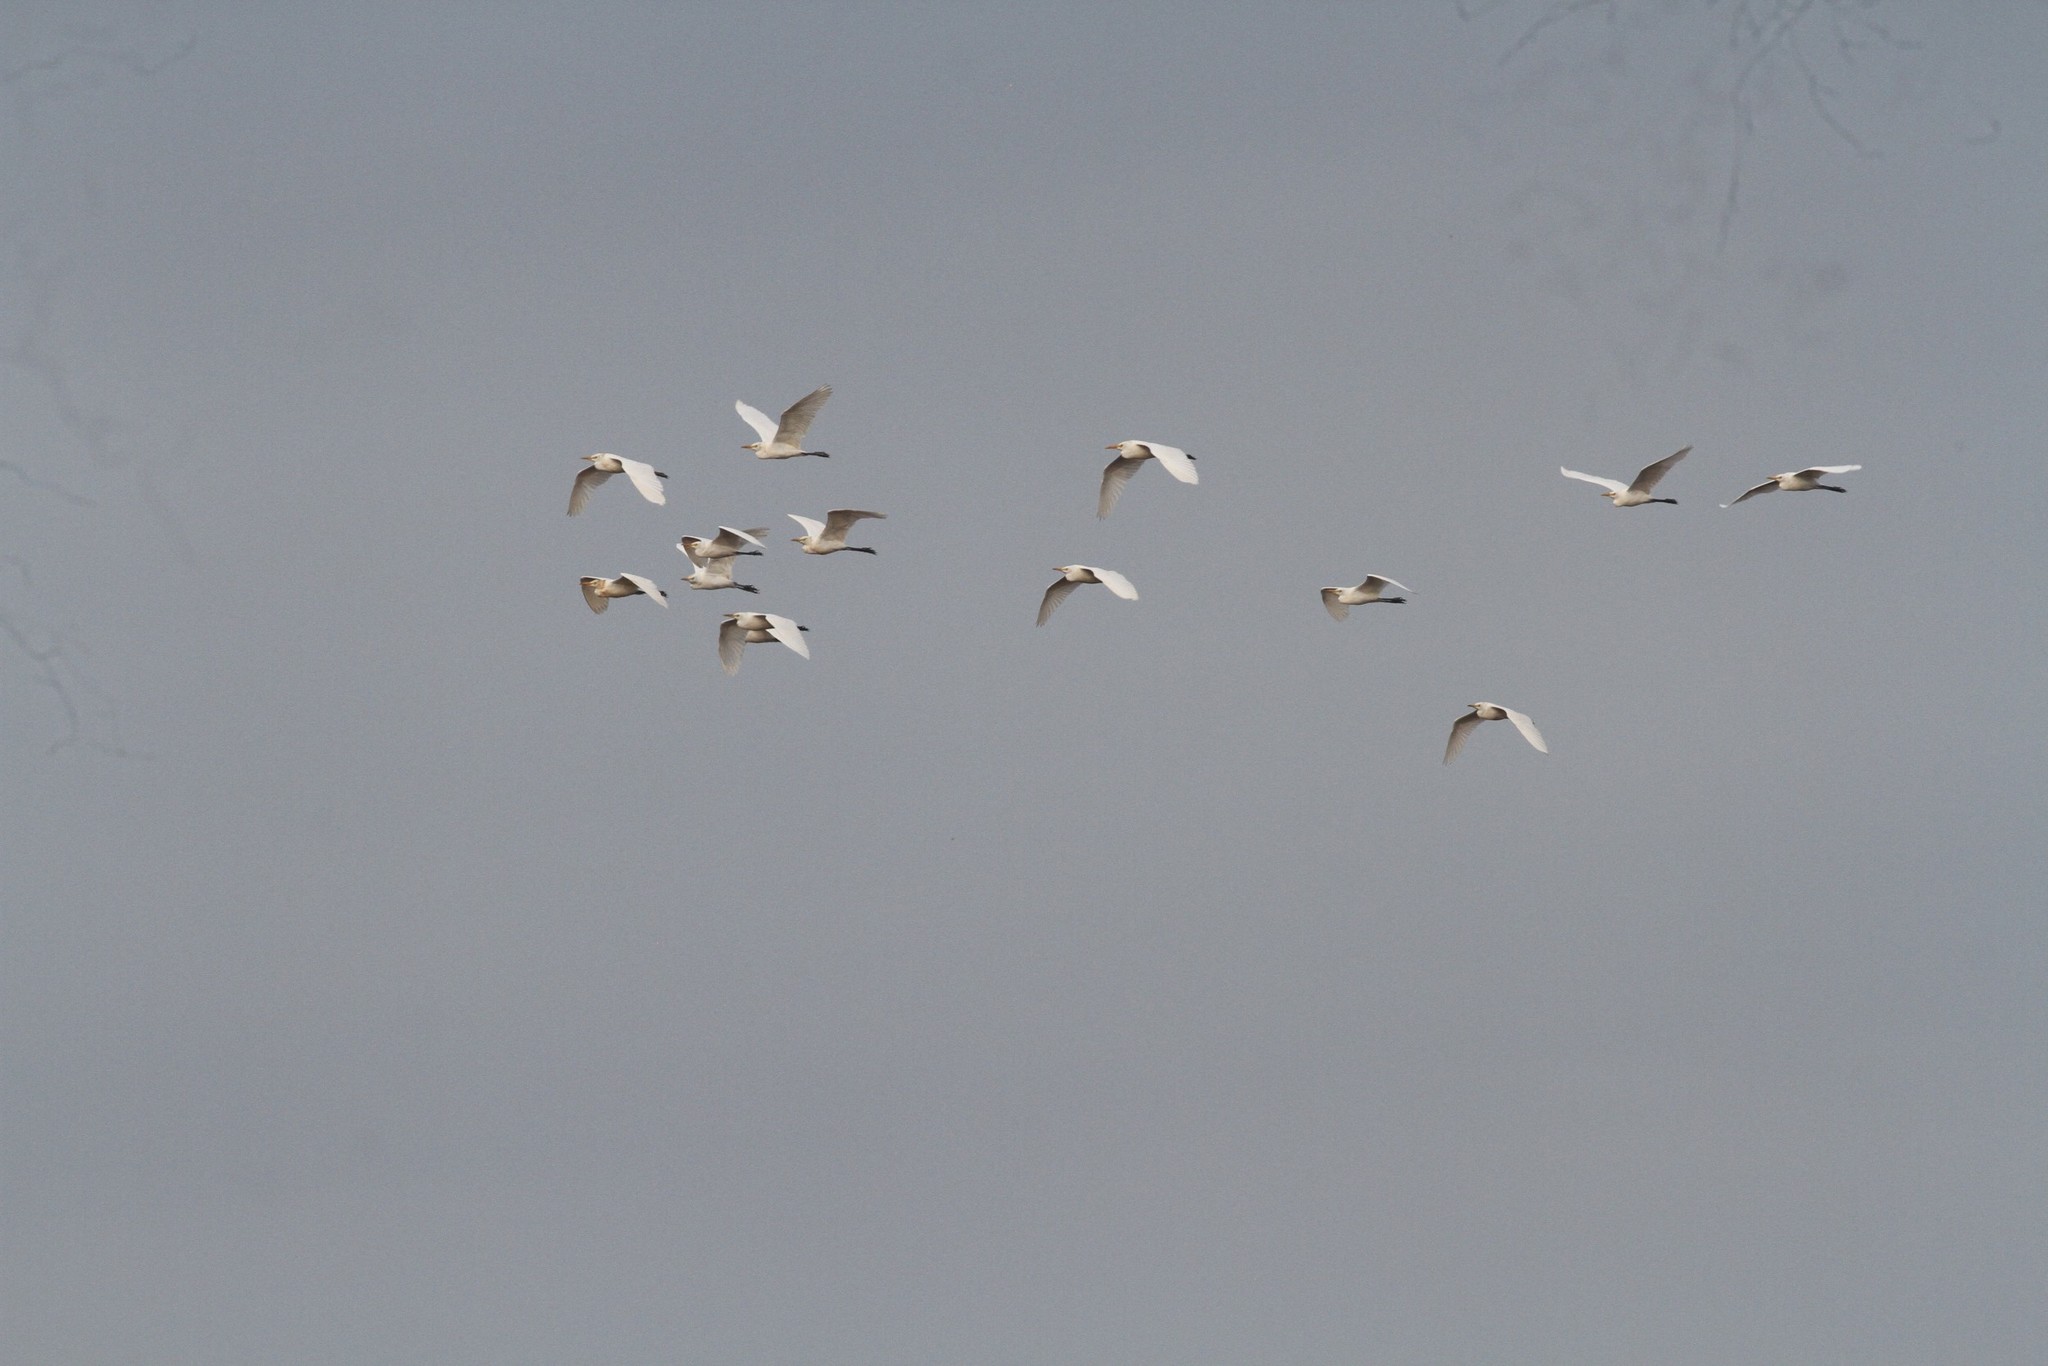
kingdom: Animalia
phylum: Chordata
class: Aves
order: Pelecaniformes
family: Ardeidae
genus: Bubulcus
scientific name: Bubulcus coromandus
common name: Eastern cattle egret
